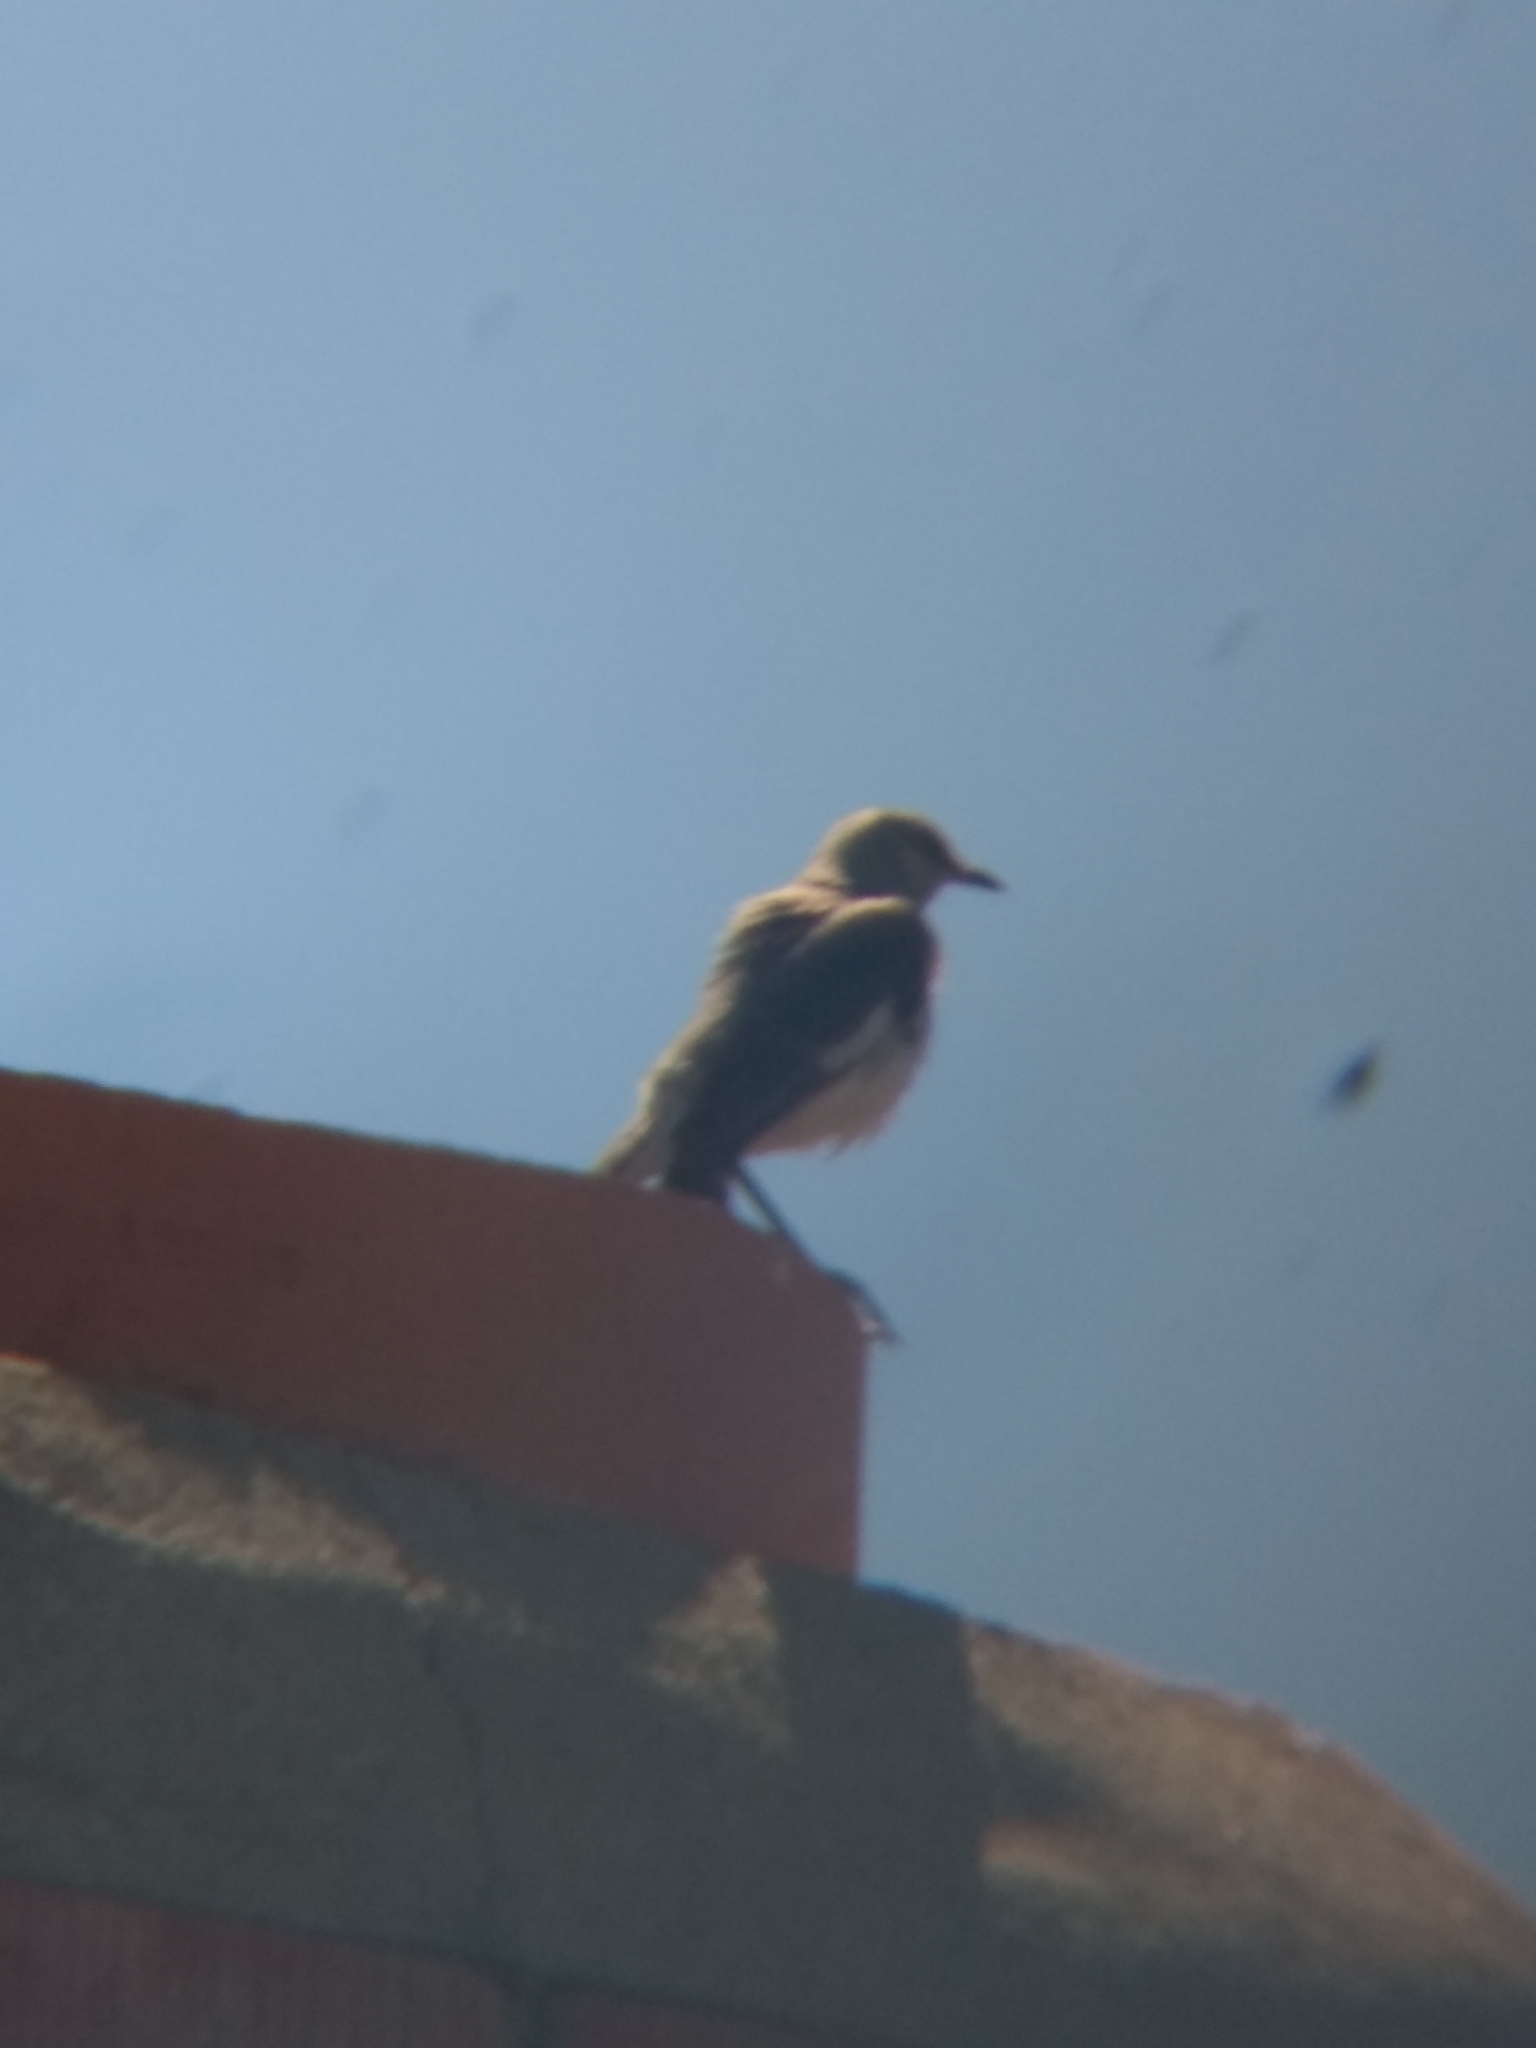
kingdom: Animalia
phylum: Chordata
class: Aves
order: Passeriformes
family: Mimidae
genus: Mimus
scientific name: Mimus polyglottos
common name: Northern mockingbird
